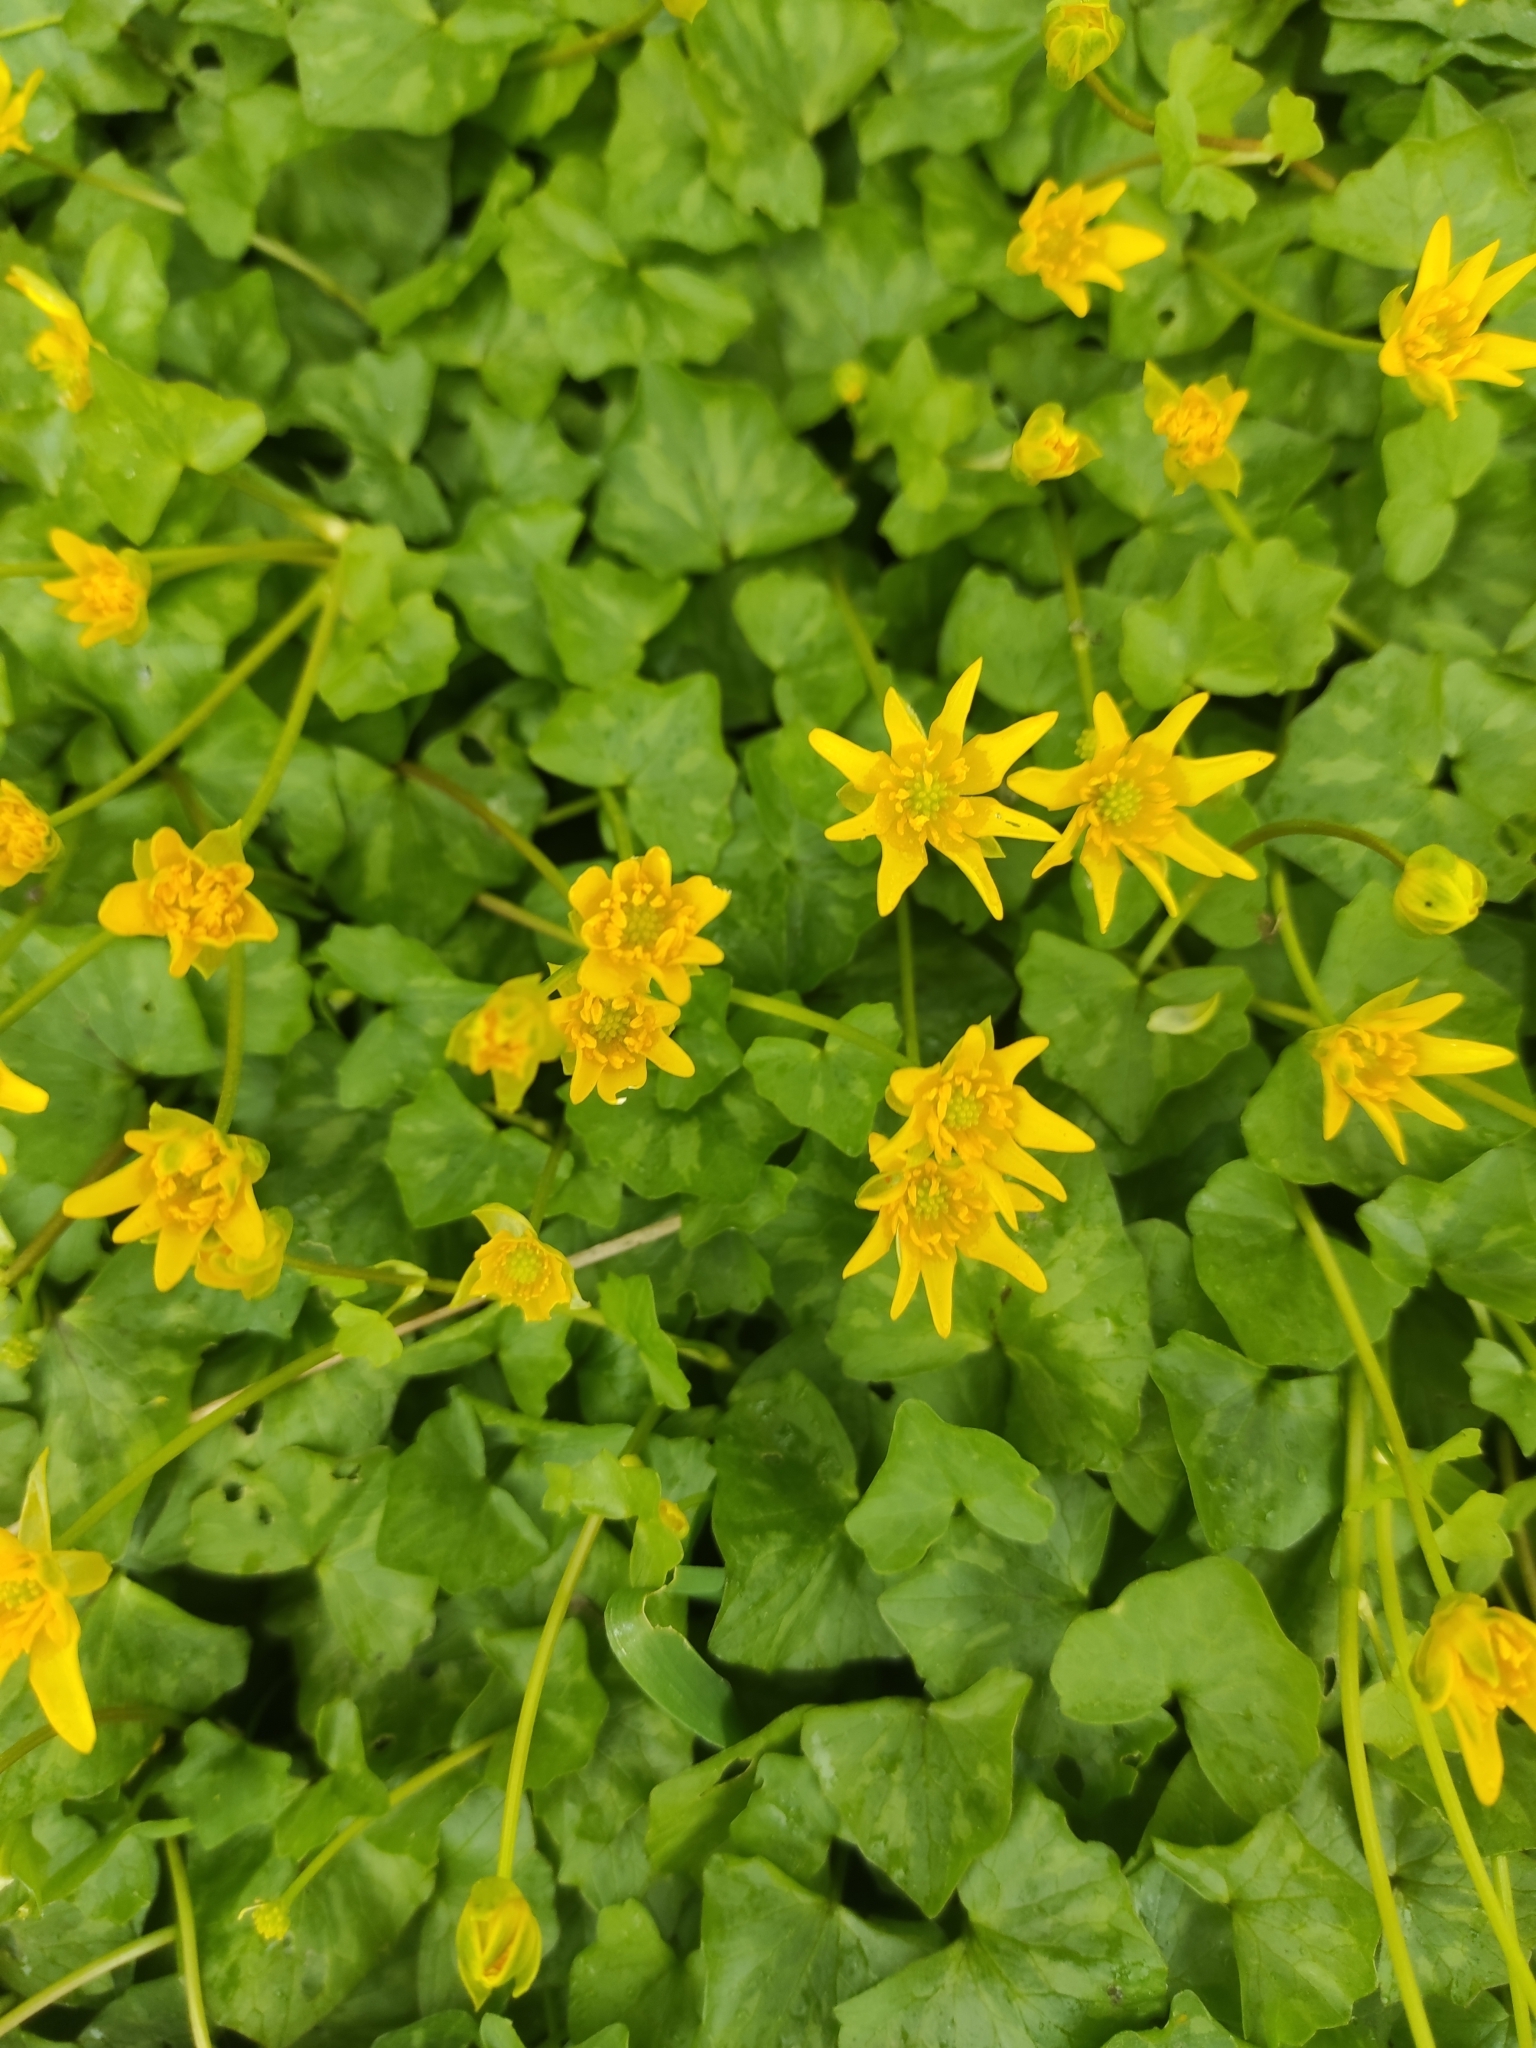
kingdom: Plantae
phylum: Tracheophyta
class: Magnoliopsida
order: Ranunculales
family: Ranunculaceae
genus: Ficaria
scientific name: Ficaria verna
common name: Lesser celandine
